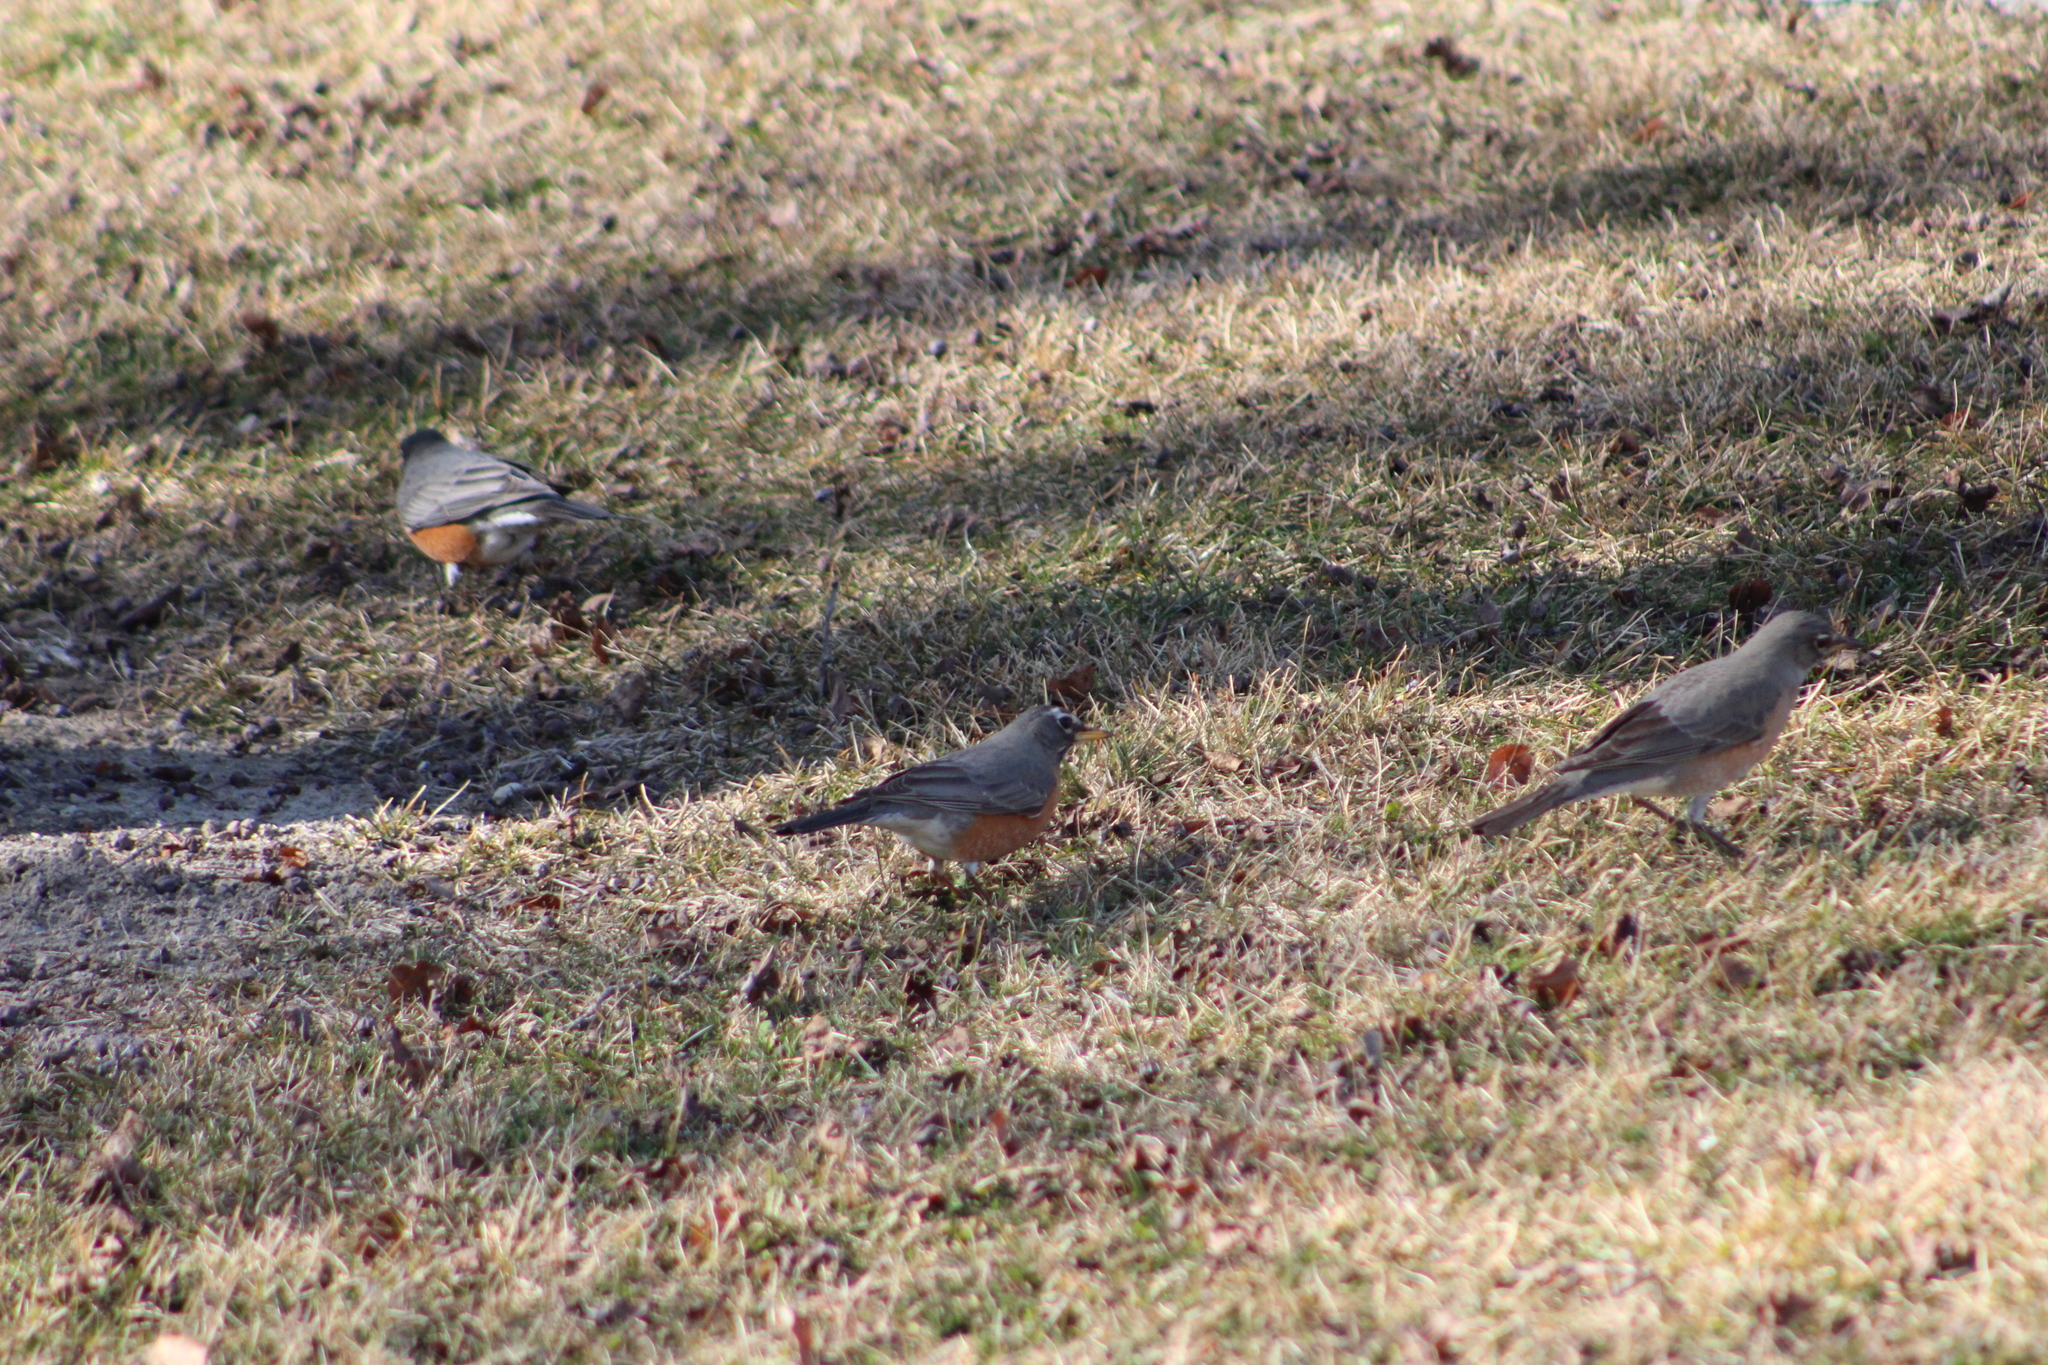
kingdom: Animalia
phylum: Chordata
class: Aves
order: Passeriformes
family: Turdidae
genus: Turdus
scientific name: Turdus migratorius
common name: American robin
